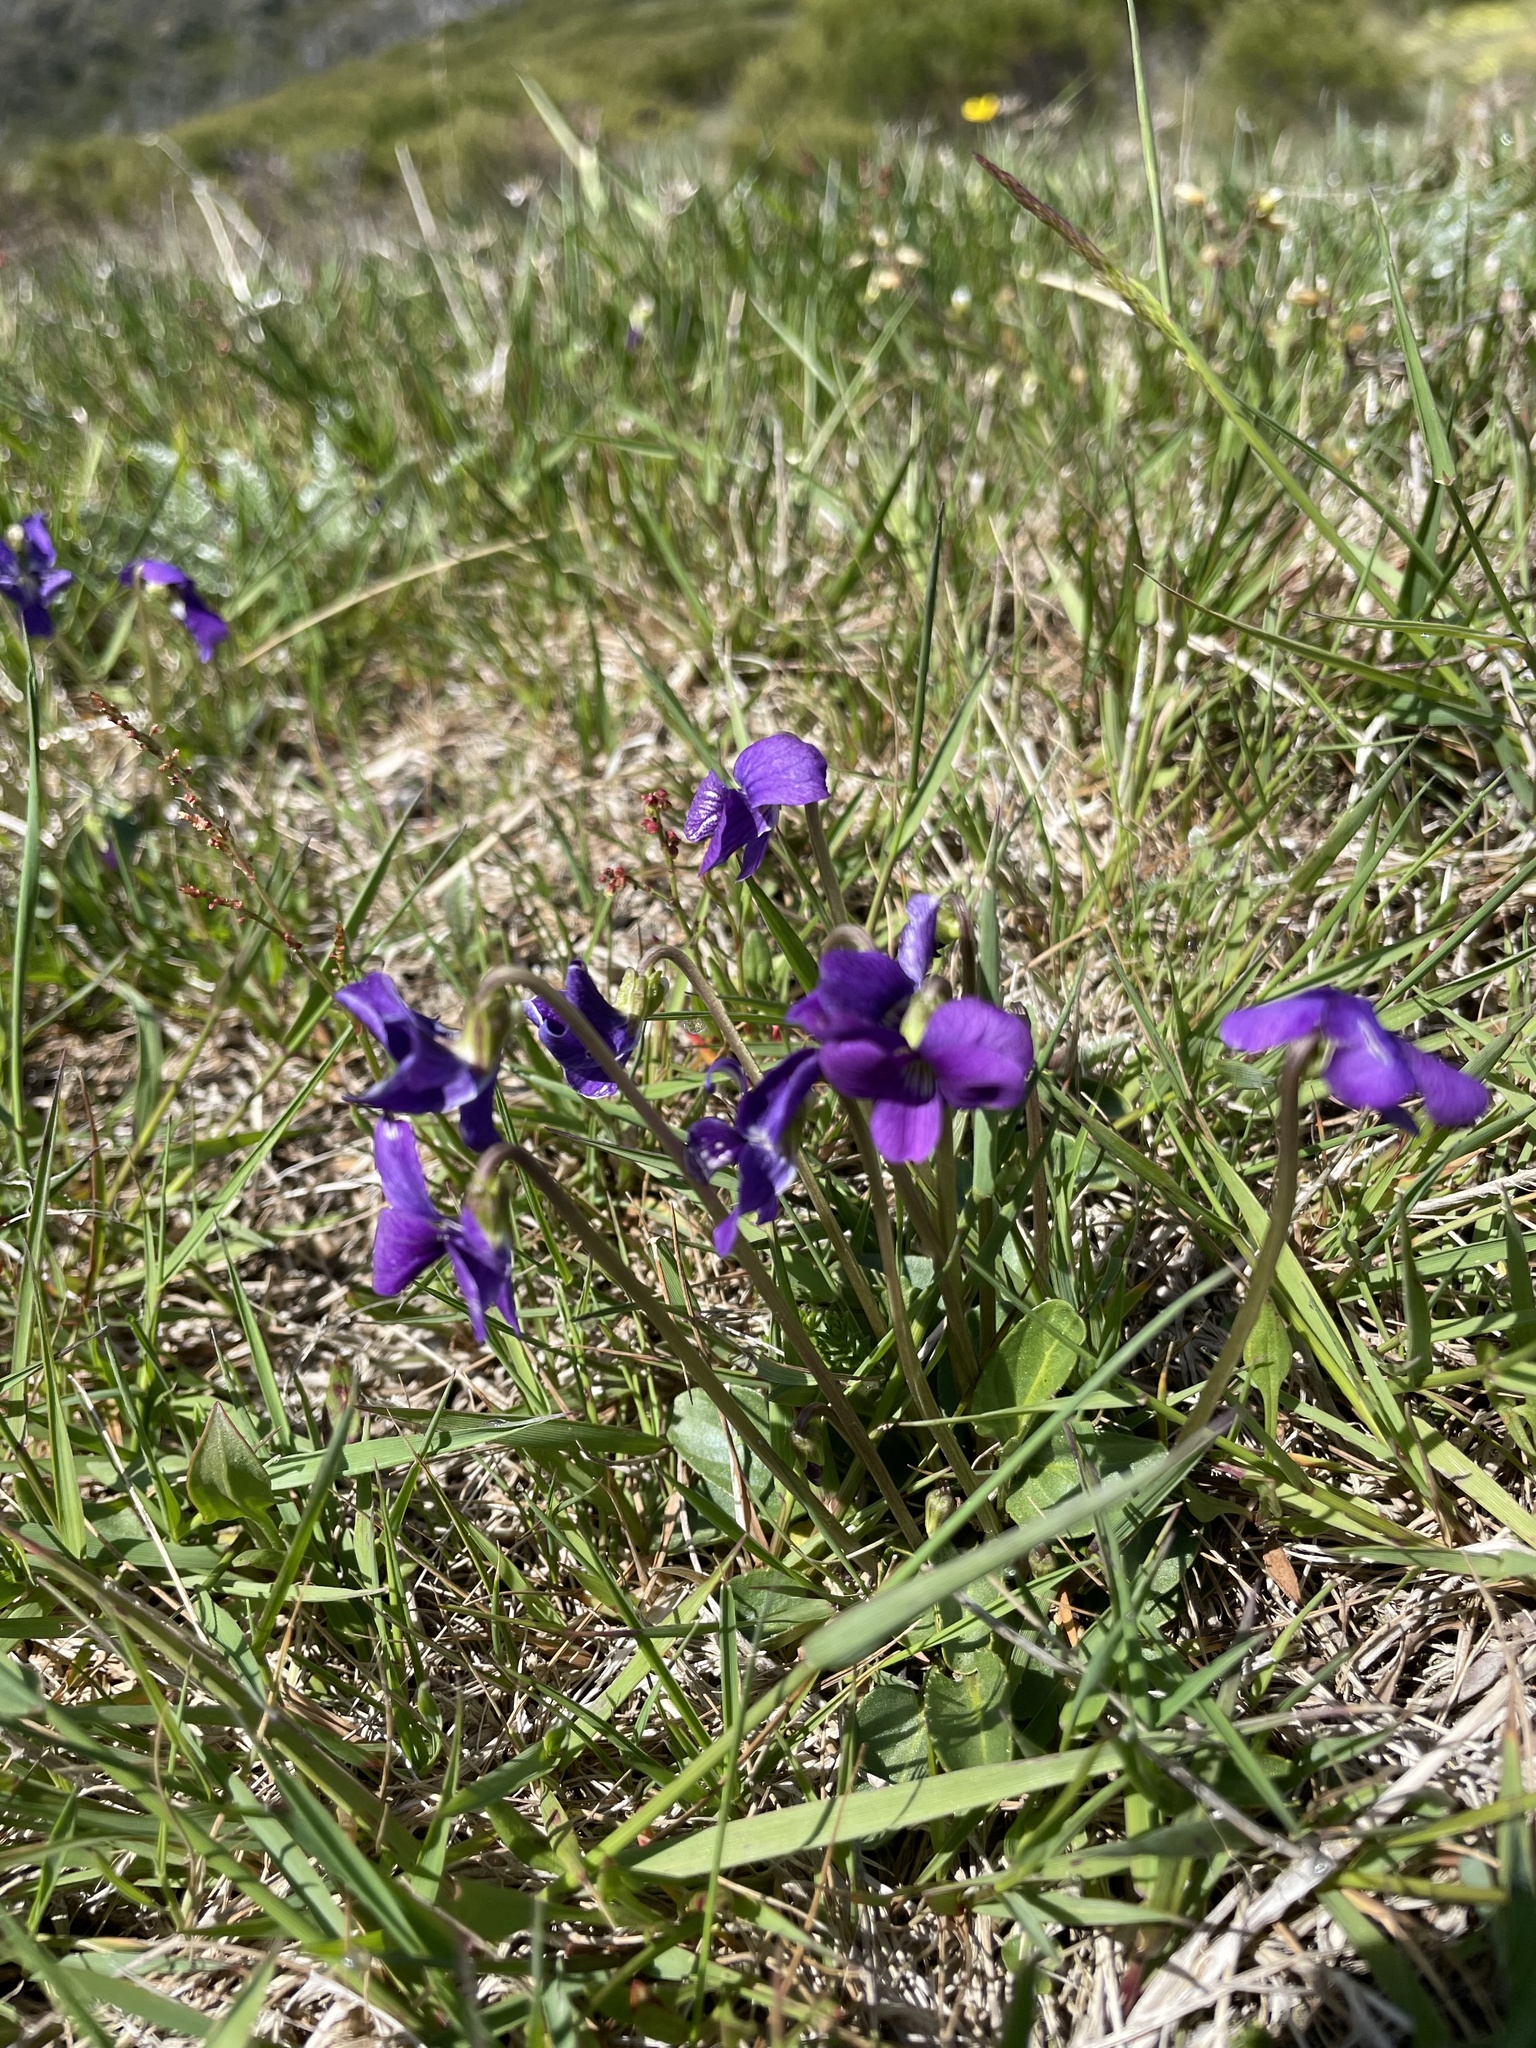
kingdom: Plantae
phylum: Tracheophyta
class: Magnoliopsida
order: Malpighiales
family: Violaceae
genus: Viola
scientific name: Viola betonicifolia
